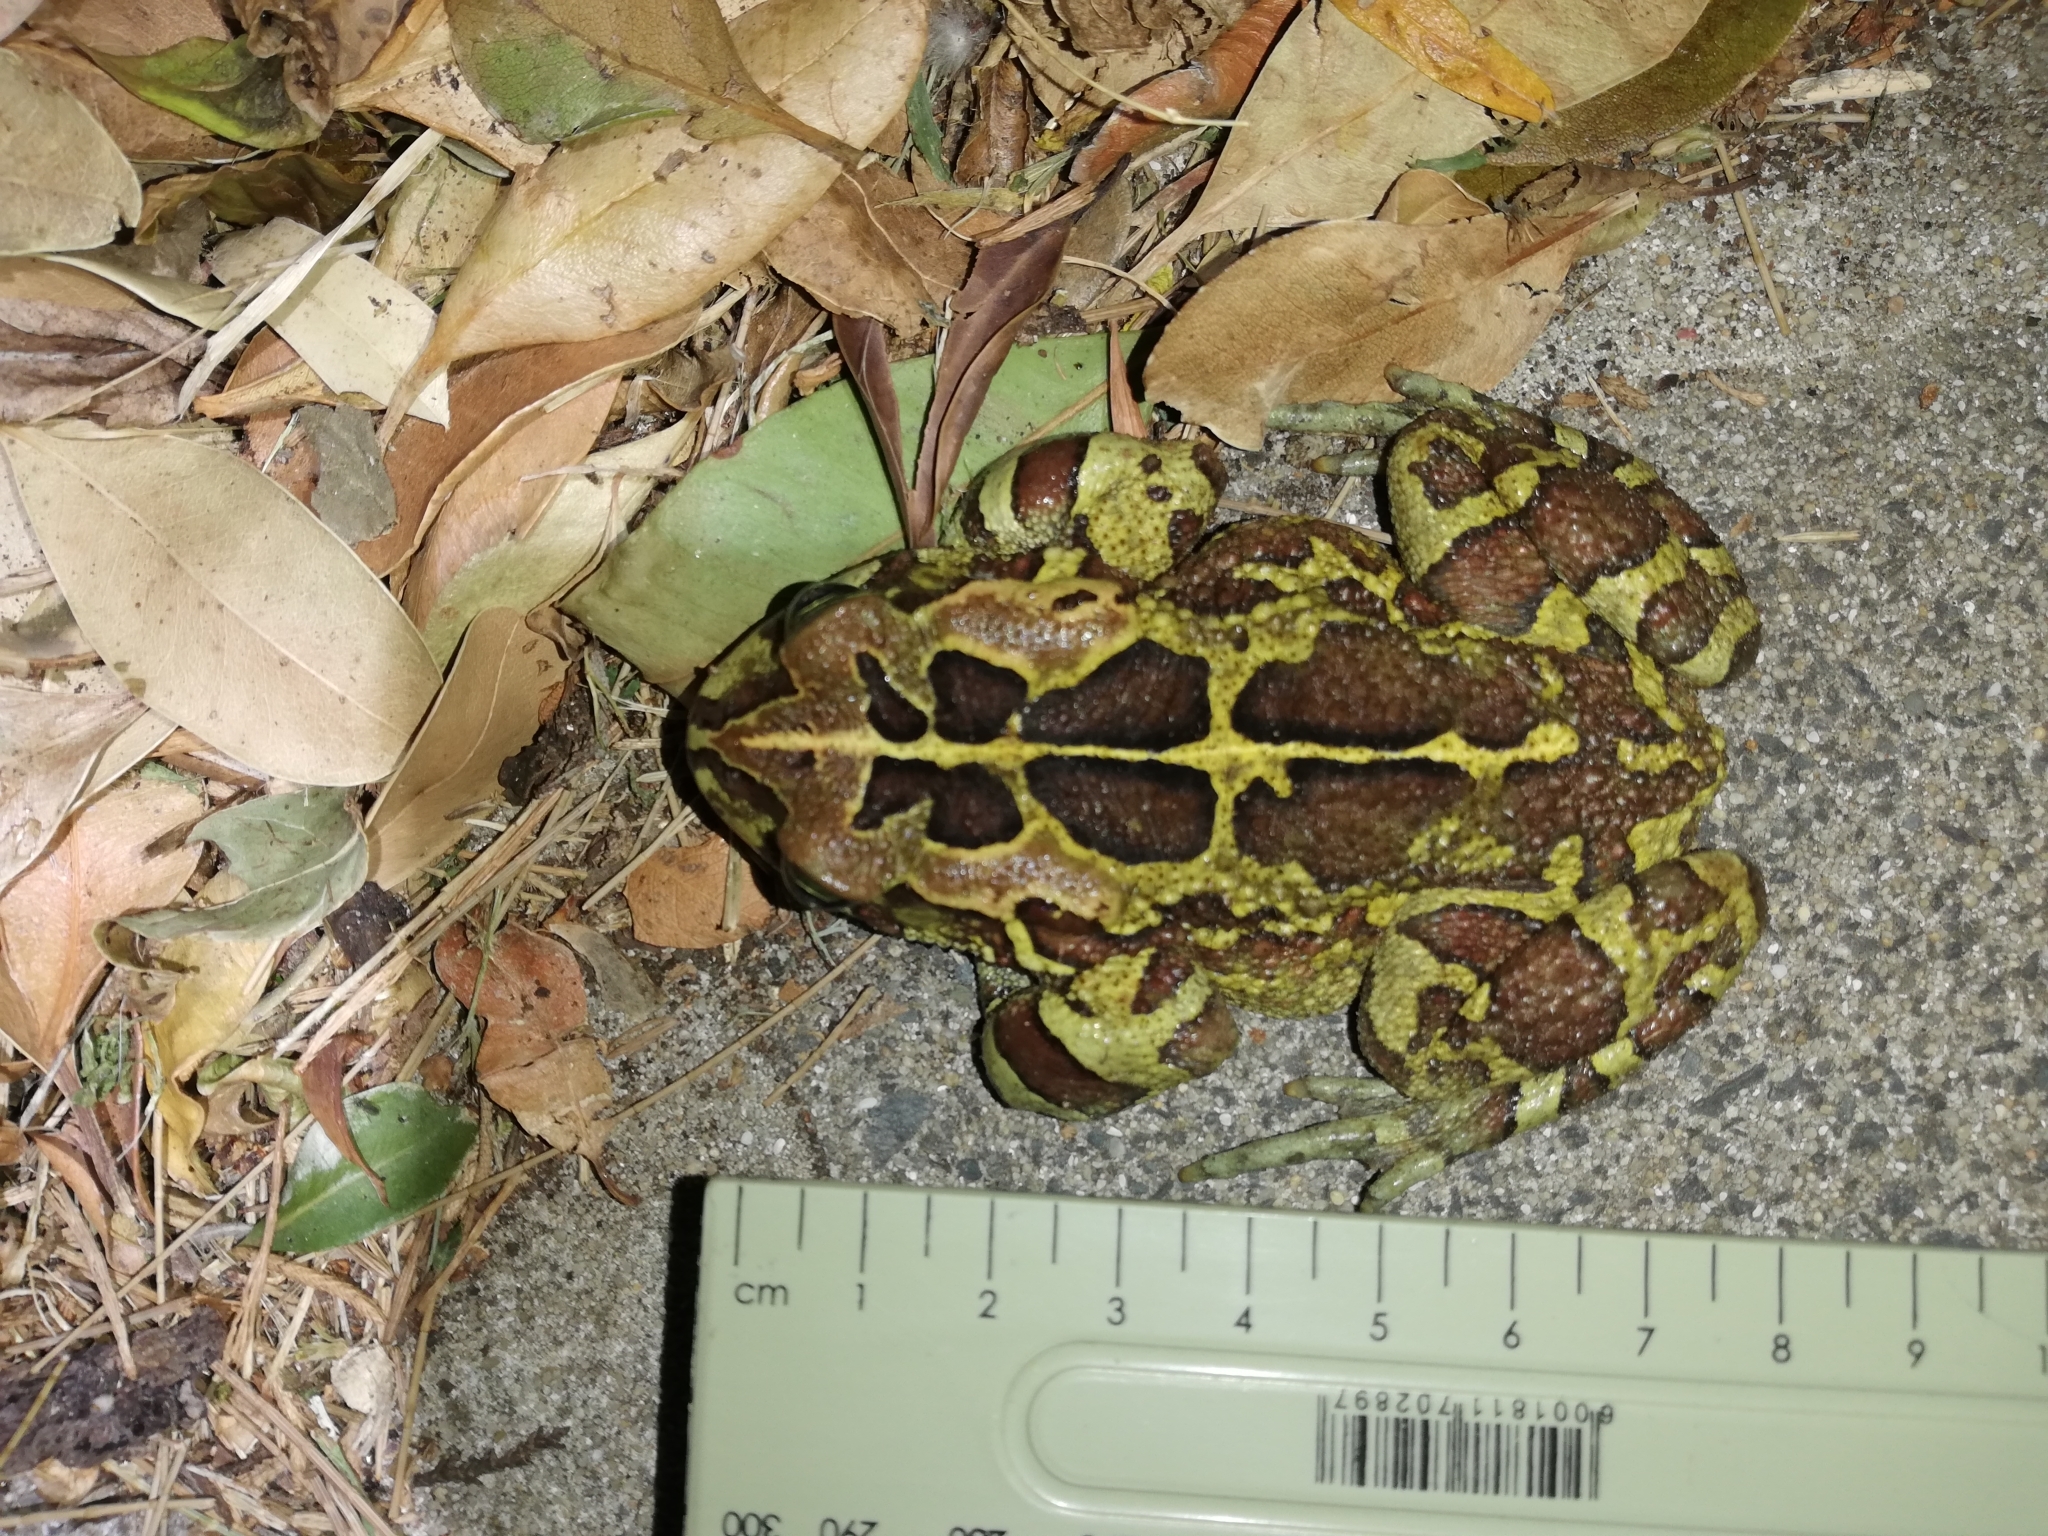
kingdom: Animalia
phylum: Chordata
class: Amphibia
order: Anura
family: Bufonidae
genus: Sclerophrys
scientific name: Sclerophrys pantherina
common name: Panther toad
